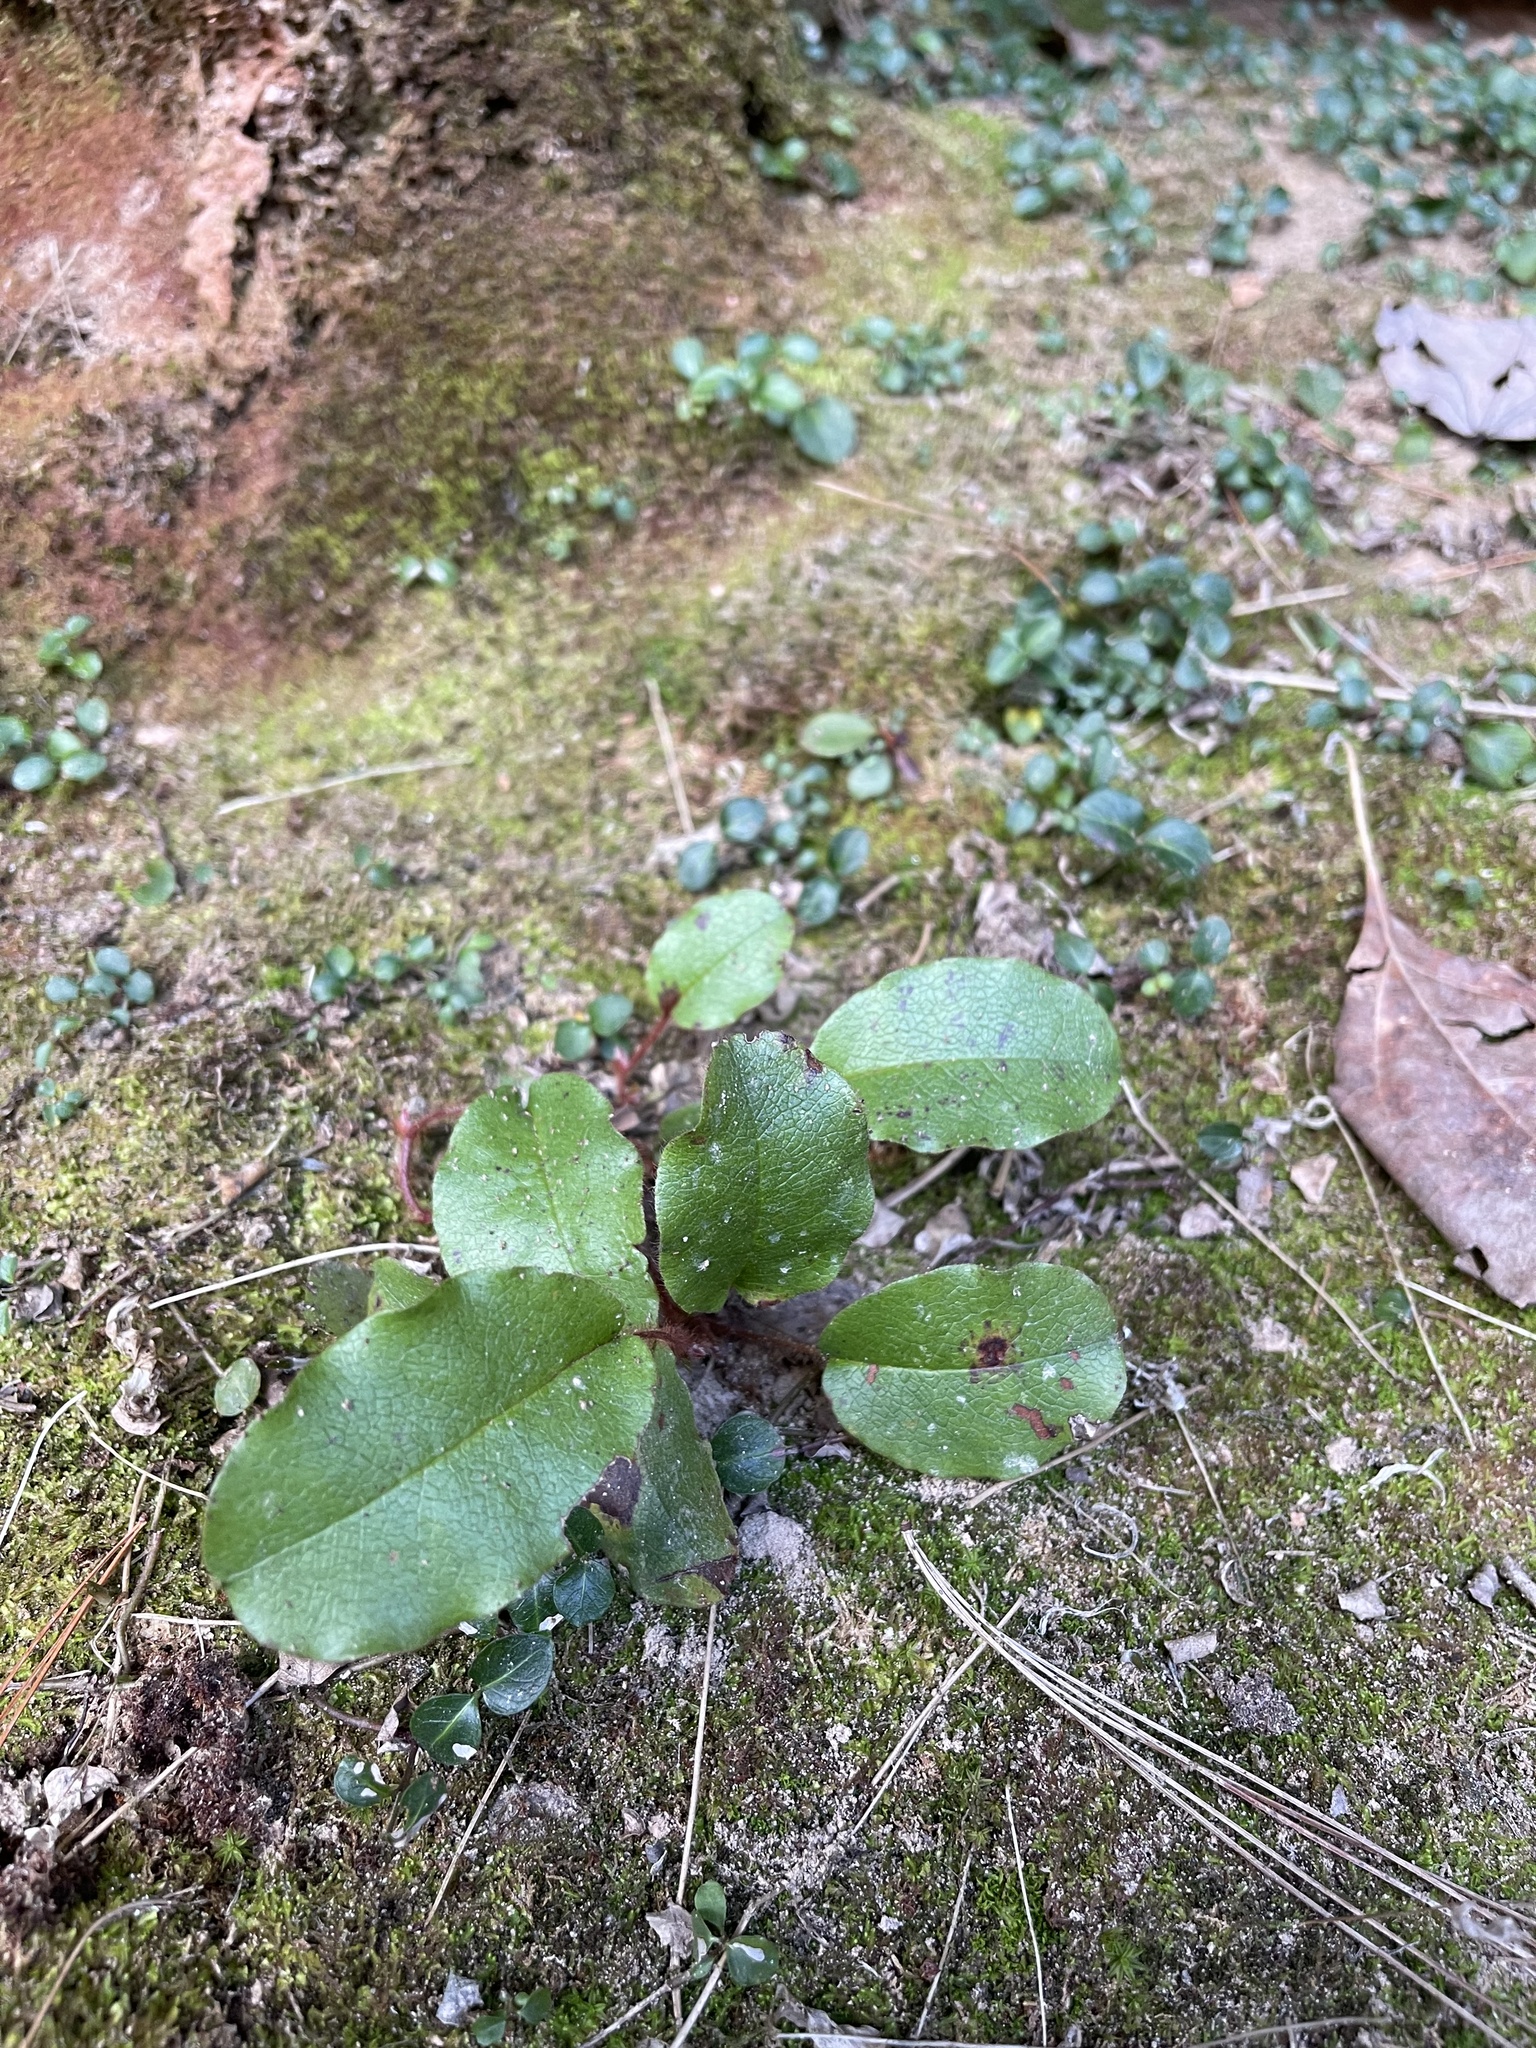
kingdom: Plantae
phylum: Tracheophyta
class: Magnoliopsida
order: Ericales
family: Ericaceae
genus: Epigaea
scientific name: Epigaea repens
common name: Gravelroot
